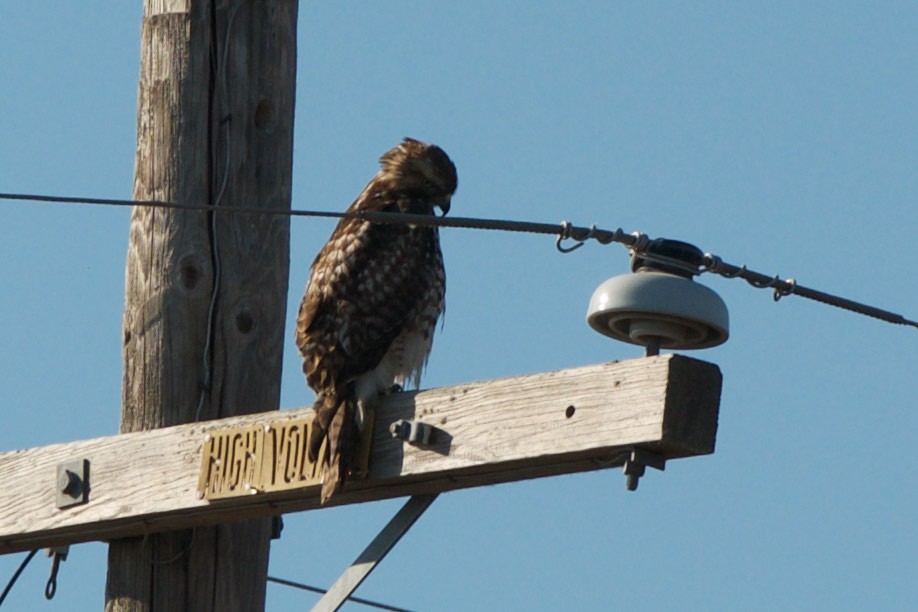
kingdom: Animalia
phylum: Chordata
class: Aves
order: Accipitriformes
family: Accipitridae
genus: Buteo
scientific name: Buteo jamaicensis
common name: Red-tailed hawk
